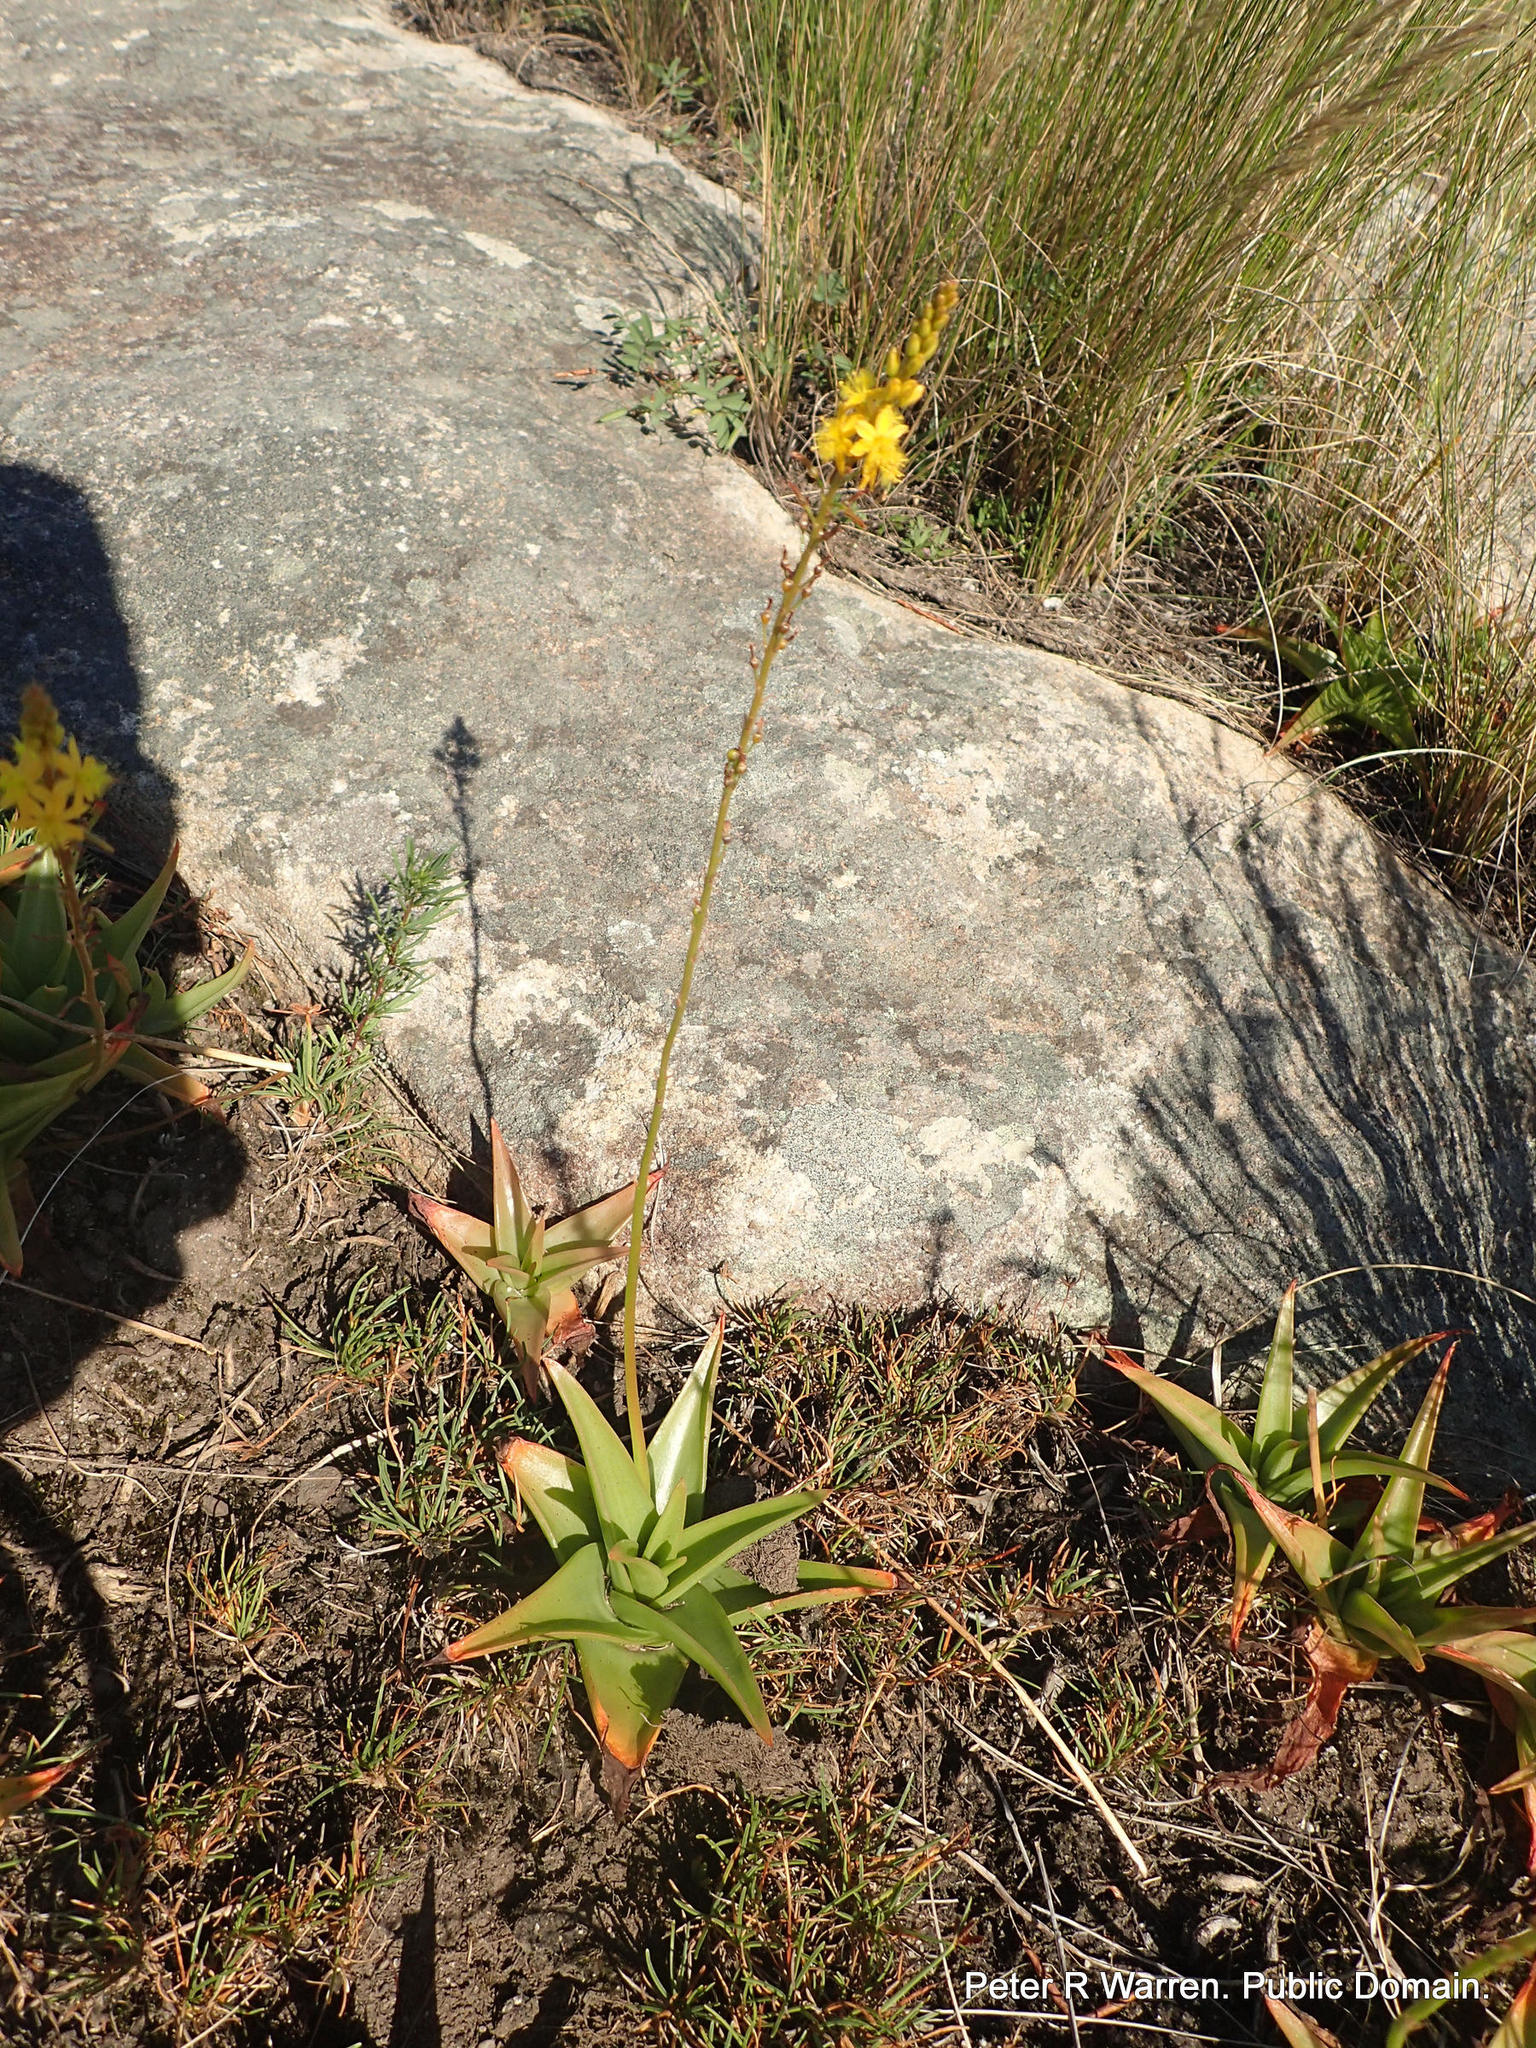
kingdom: Plantae
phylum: Tracheophyta
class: Liliopsida
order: Asparagales
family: Asphodelaceae
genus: Bulbine
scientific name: Bulbine latifolia
